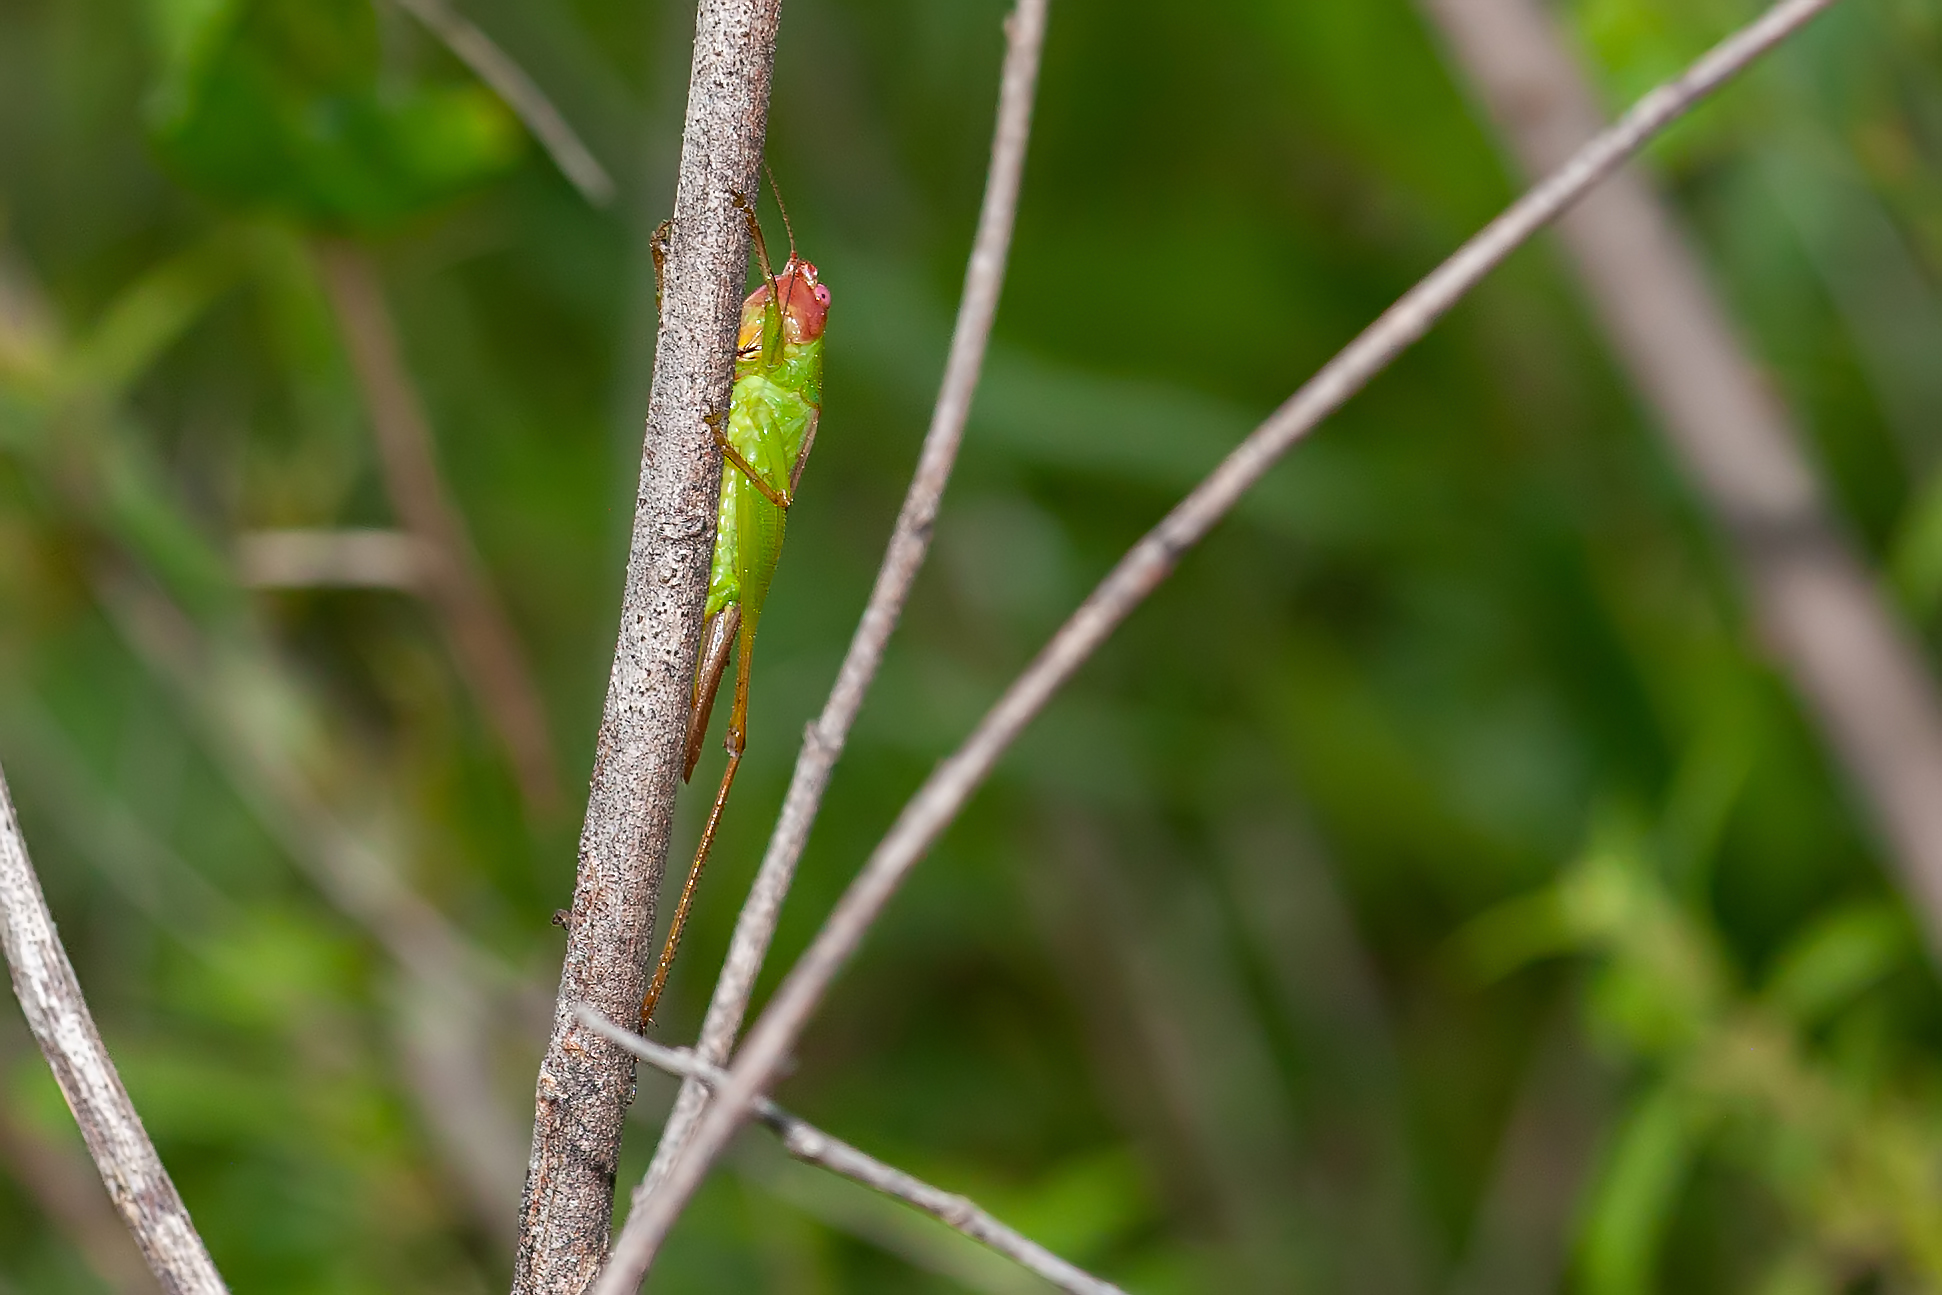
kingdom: Animalia
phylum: Arthropoda
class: Insecta
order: Orthoptera
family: Tettigoniidae
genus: Orchelimum
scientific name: Orchelimum erythrocephalum
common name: Red-headed meadow katydid
